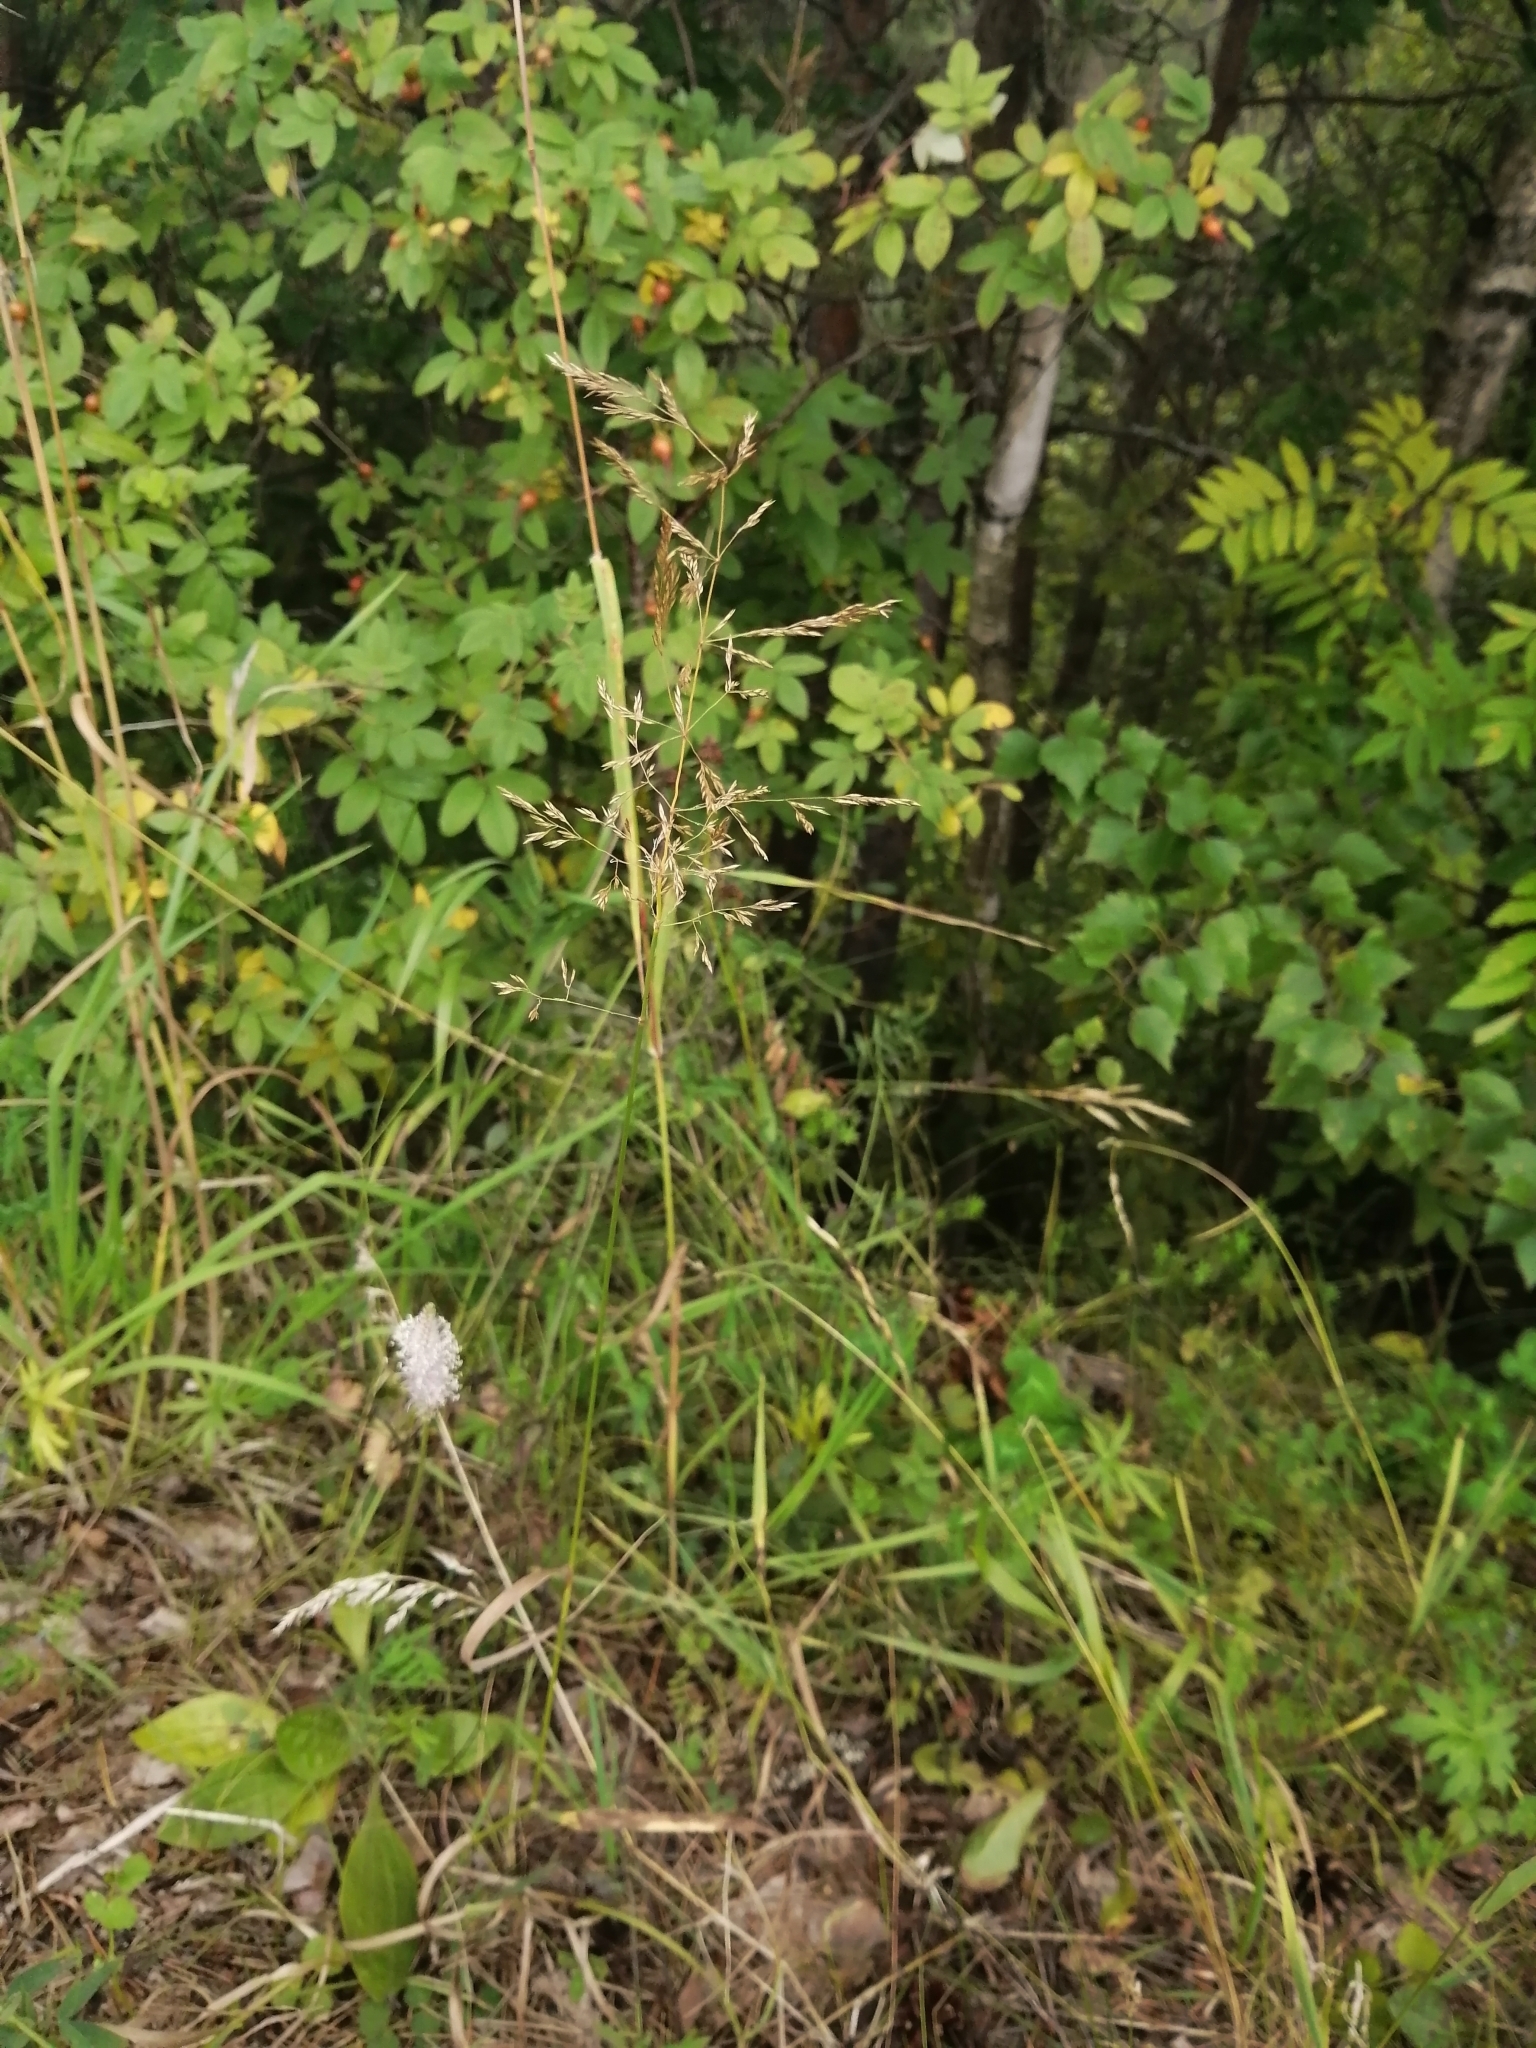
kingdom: Plantae
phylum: Tracheophyta
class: Liliopsida
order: Poales
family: Poaceae
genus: Agrostis
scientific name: Agrostis gigantea
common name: Black bent
